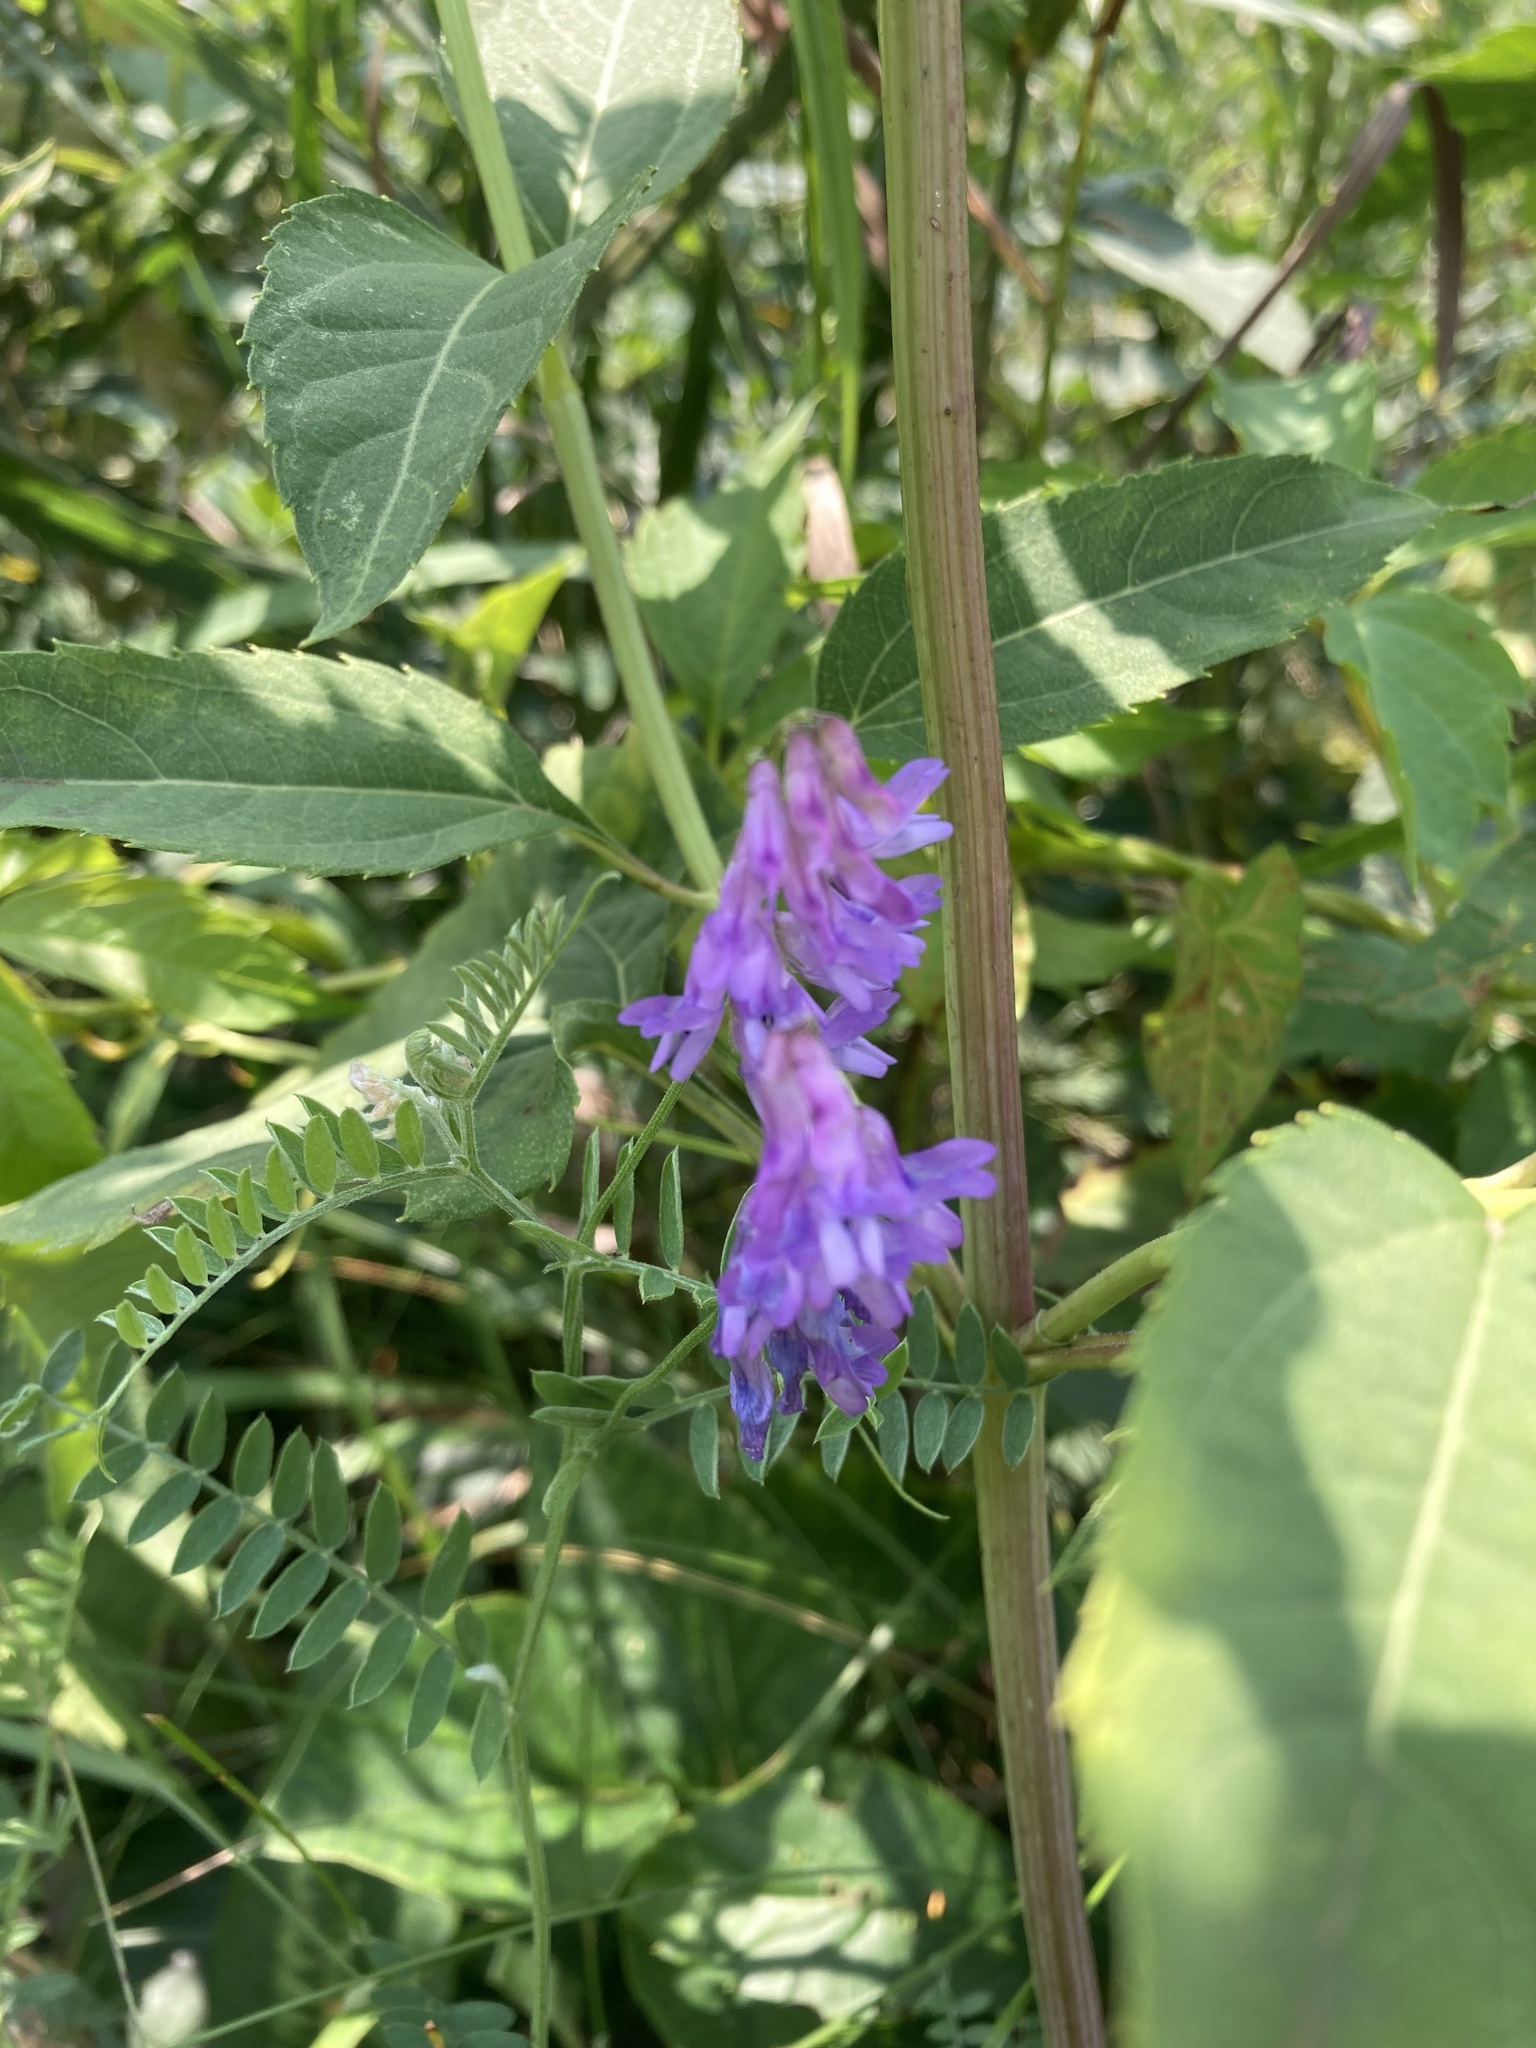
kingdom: Plantae
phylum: Tracheophyta
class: Magnoliopsida
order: Fabales
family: Fabaceae
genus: Vicia
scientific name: Vicia cracca
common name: Bird vetch
